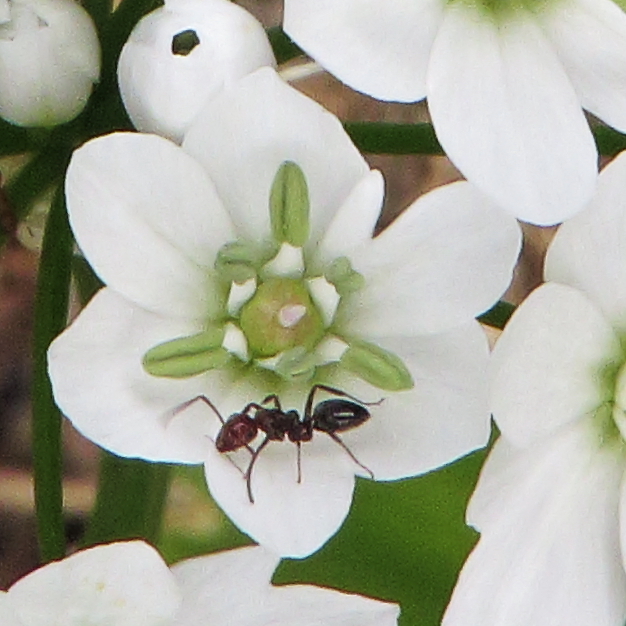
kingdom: Animalia
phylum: Arthropoda
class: Insecta
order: Hymenoptera
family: Formicidae
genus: Camponotus
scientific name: Camponotus lateralis
